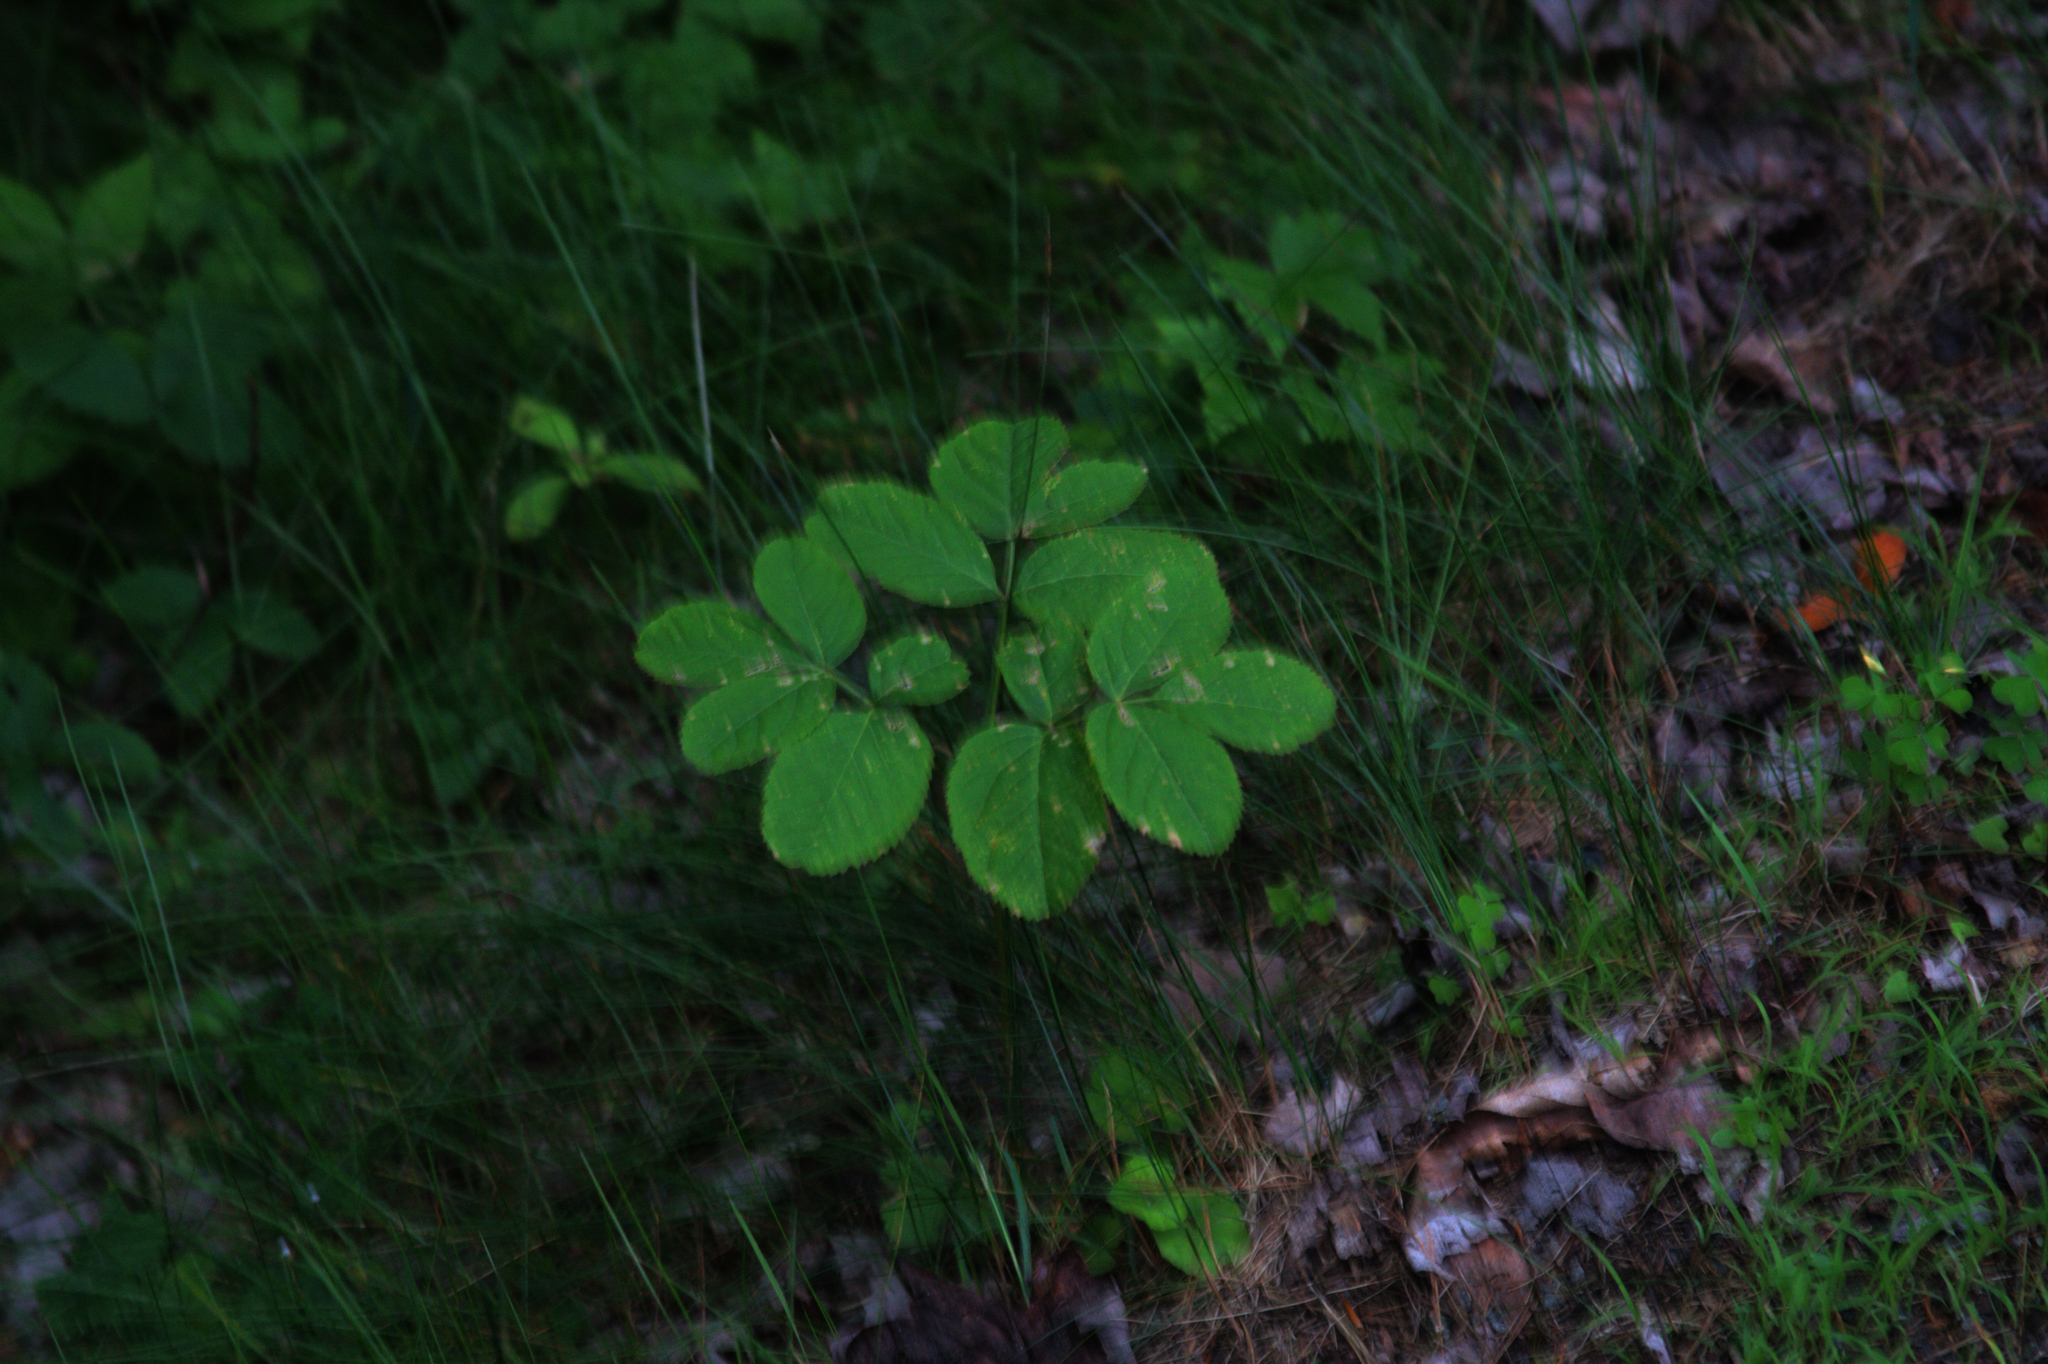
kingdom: Plantae
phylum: Tracheophyta
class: Magnoliopsida
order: Apiales
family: Araliaceae
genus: Aralia
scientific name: Aralia nudicaulis
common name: Wild sarsaparilla
